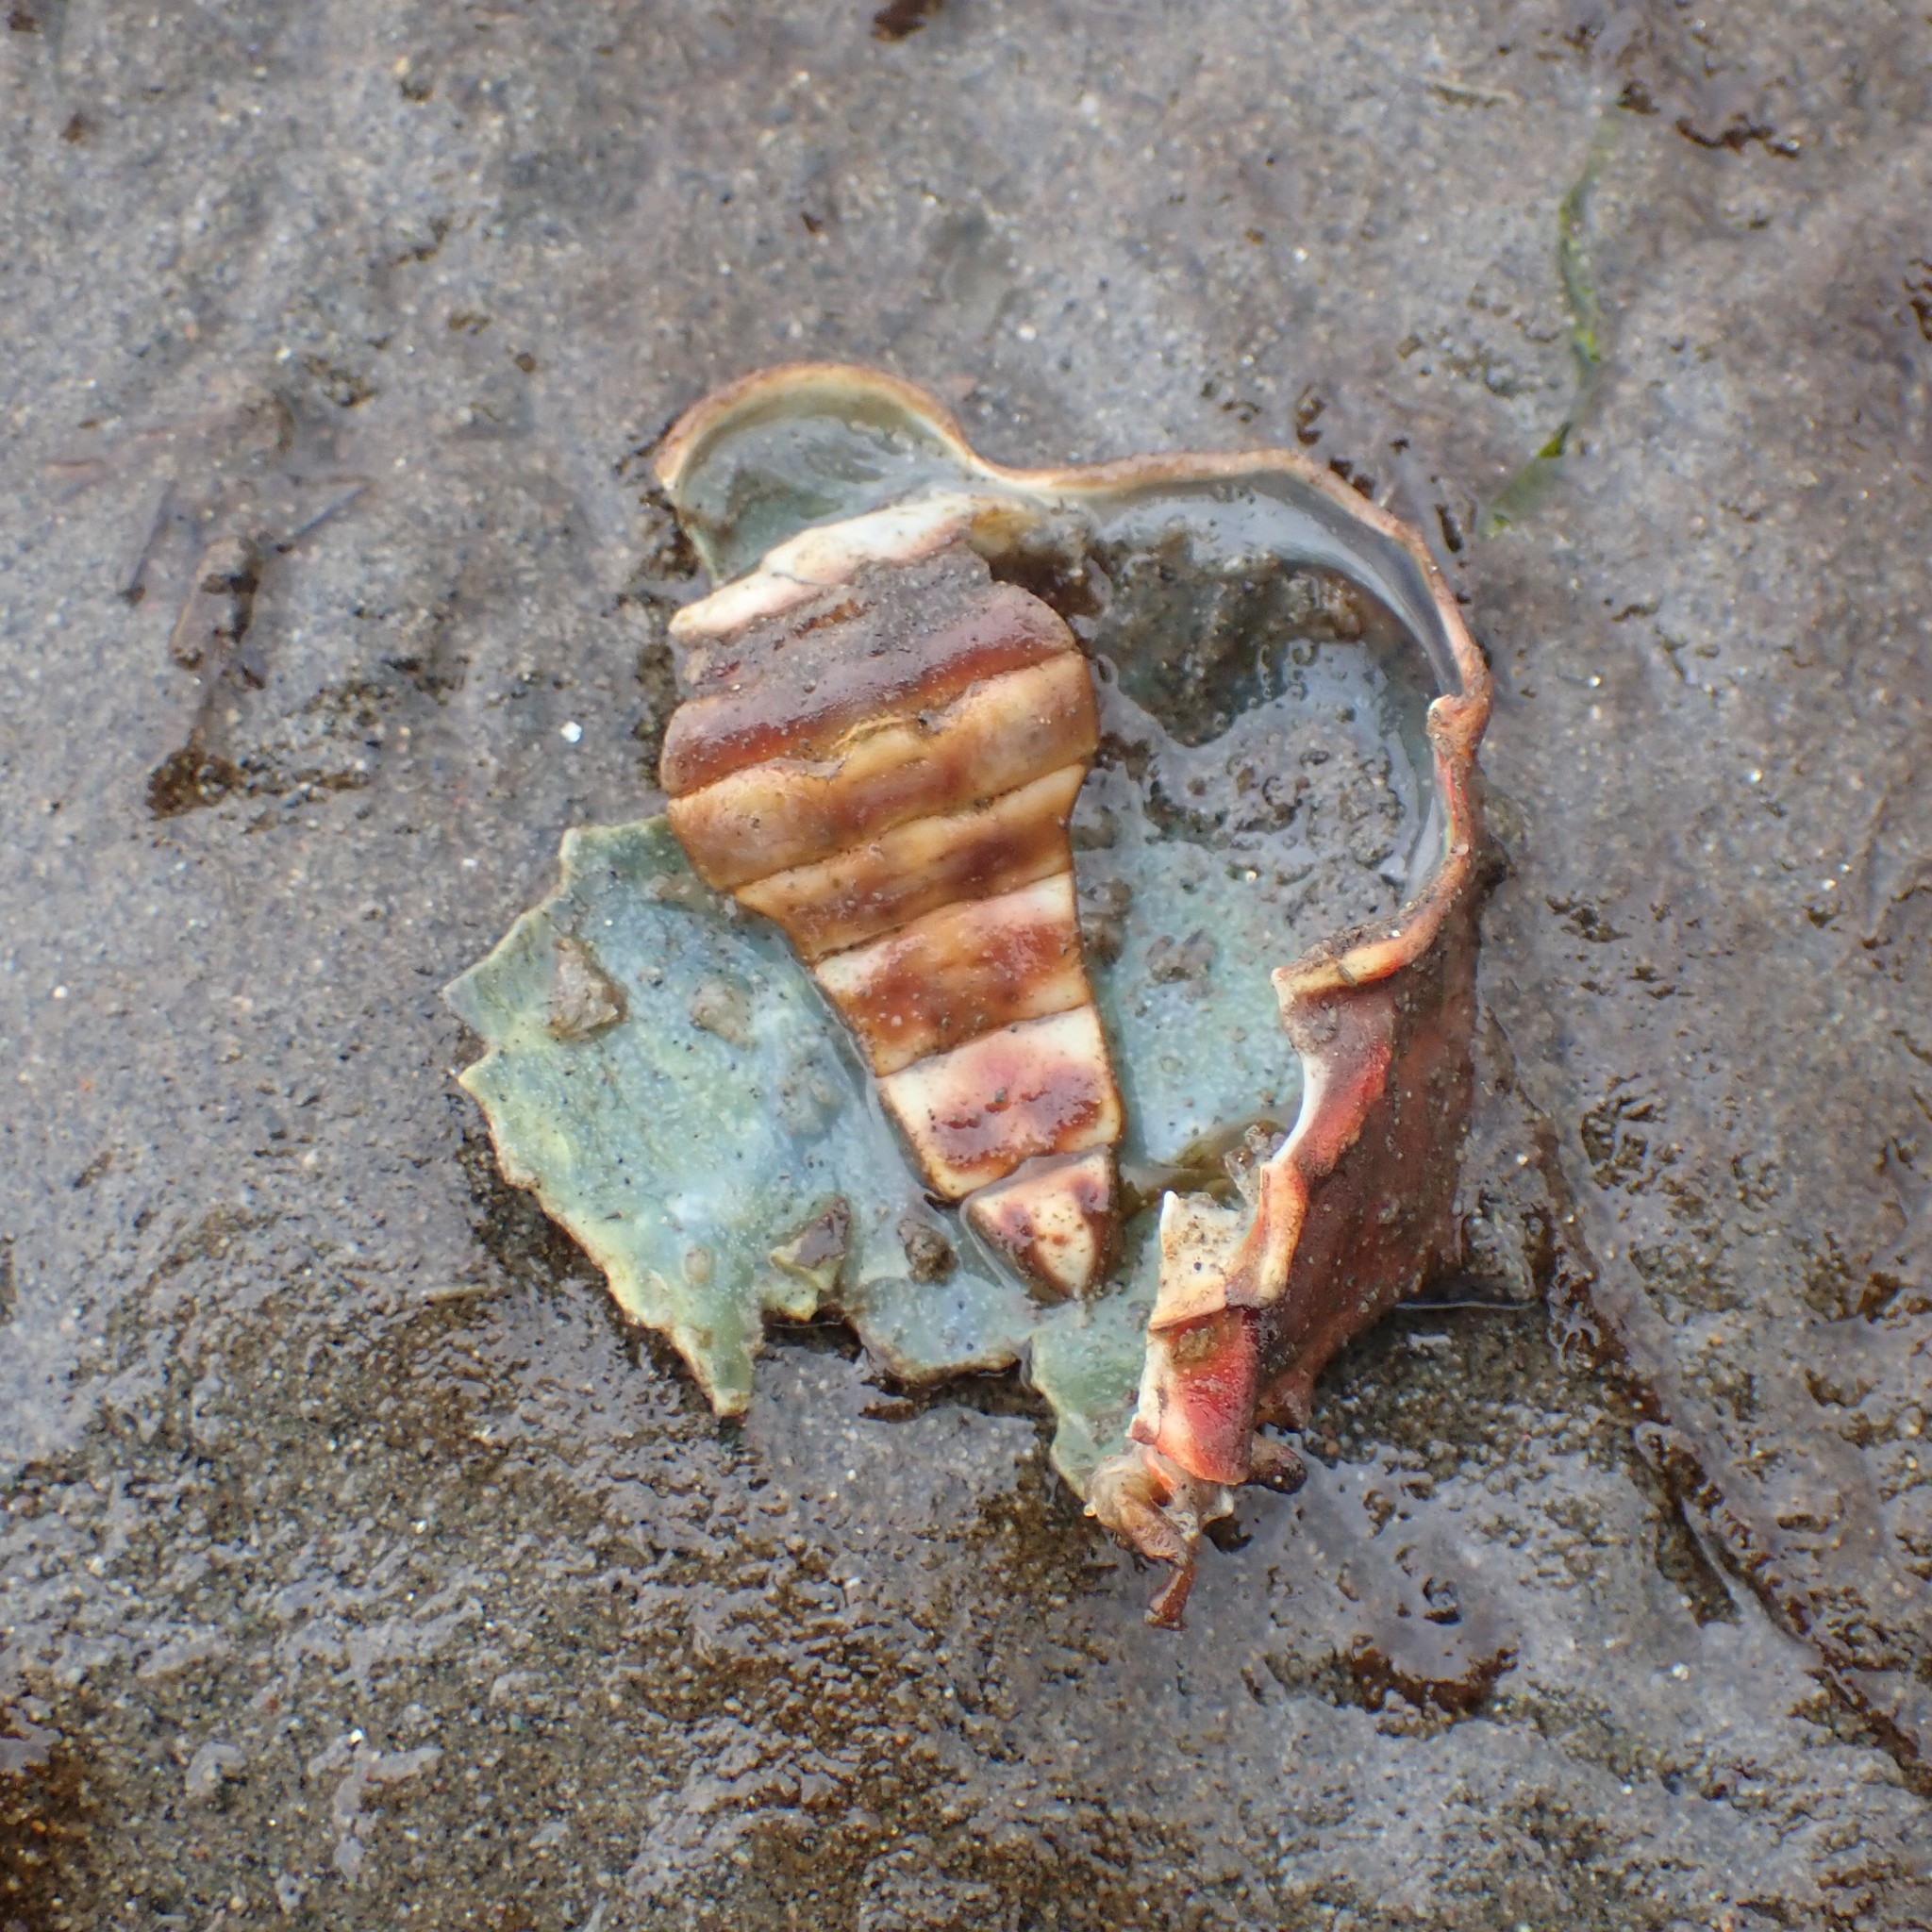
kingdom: Animalia
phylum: Arthropoda
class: Malacostraca
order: Decapoda
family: Epialtidae
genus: Pugettia
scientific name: Pugettia producta
